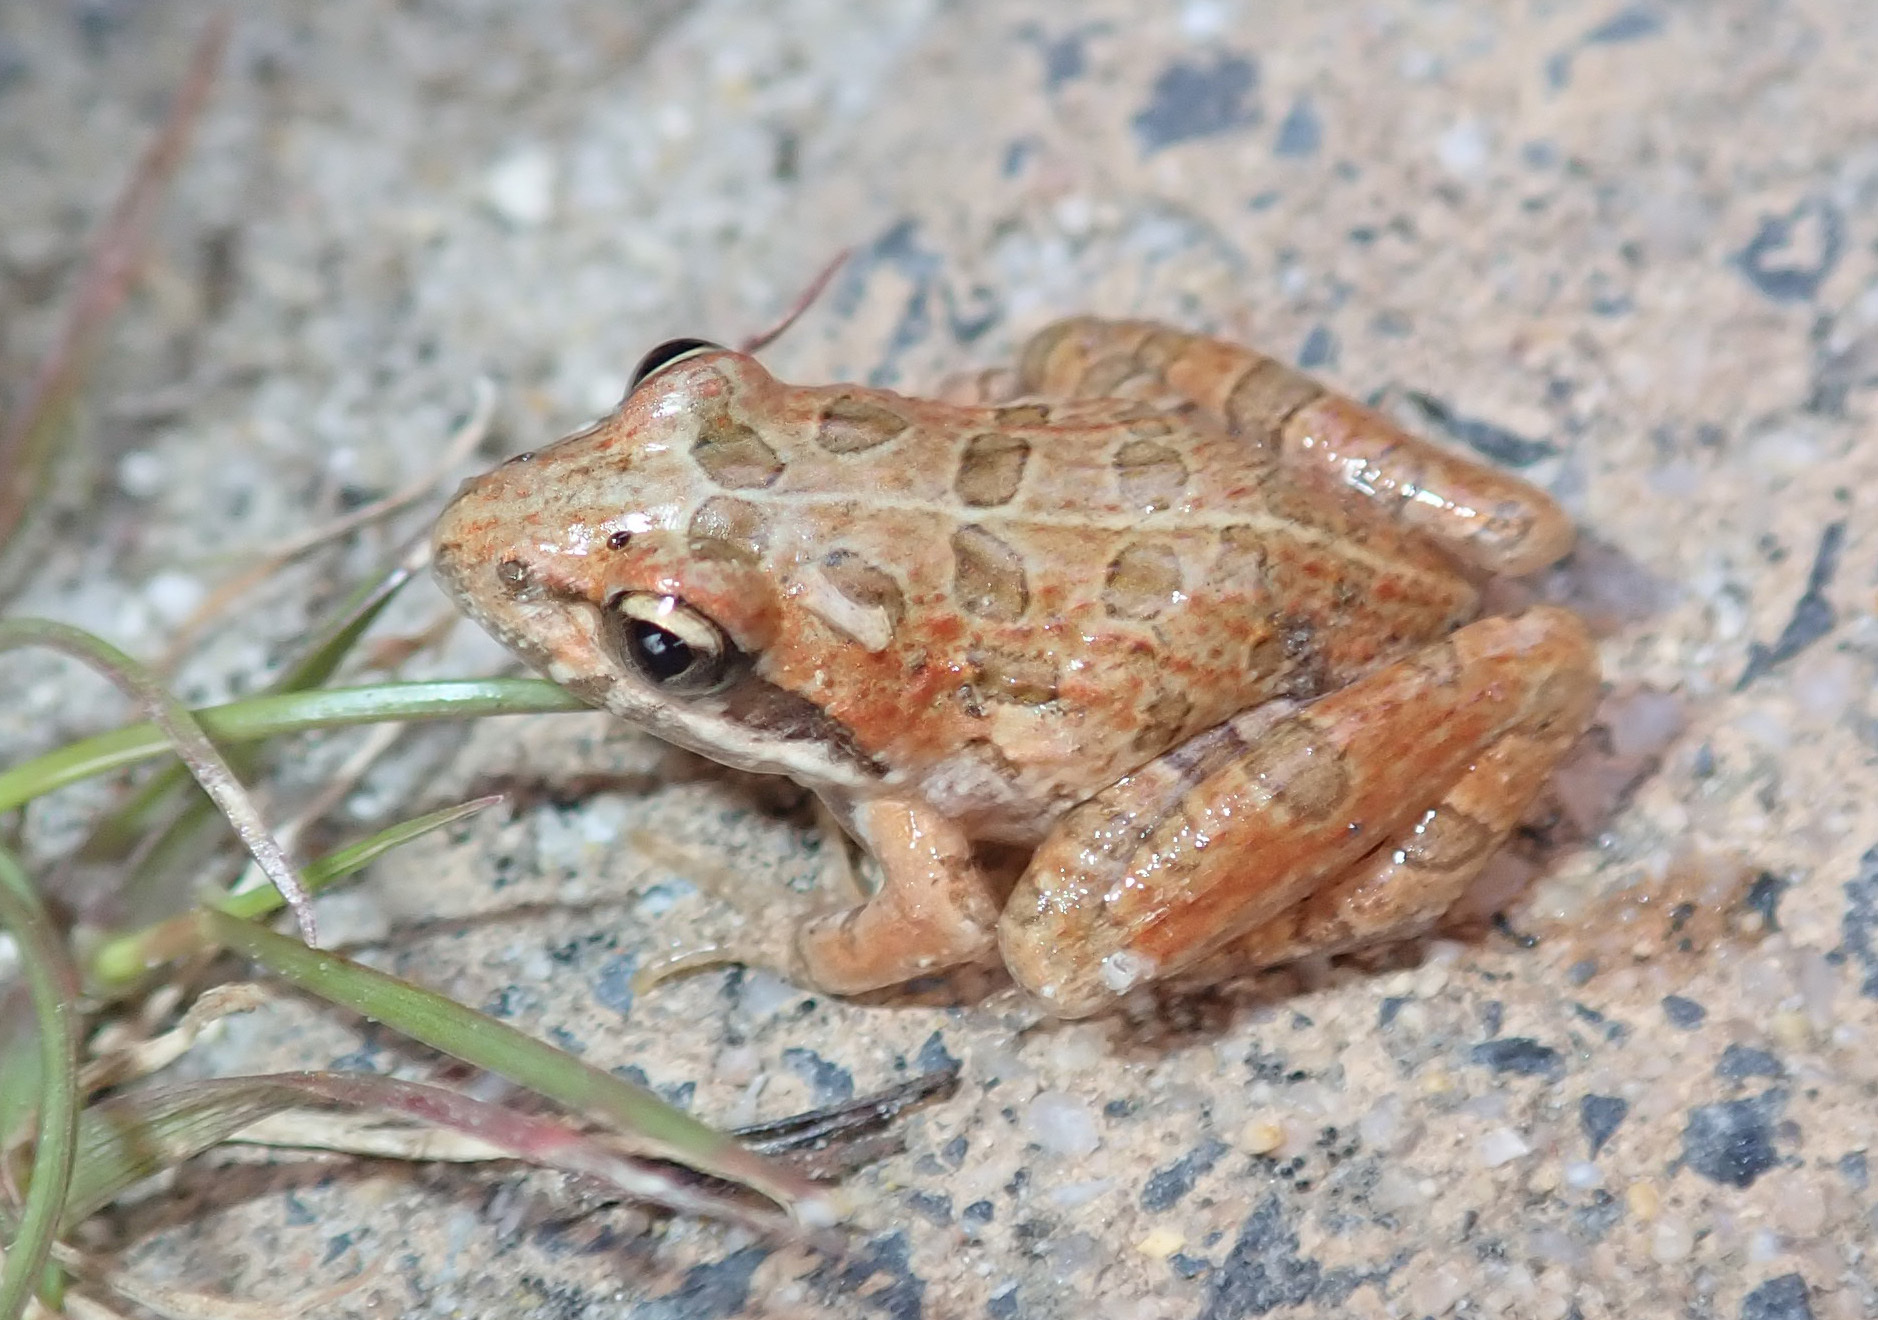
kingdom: Animalia
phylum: Chordata
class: Amphibia
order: Anura
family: Pyxicephalidae
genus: Strongylopus
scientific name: Strongylopus grayii
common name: Gray's stream frog
